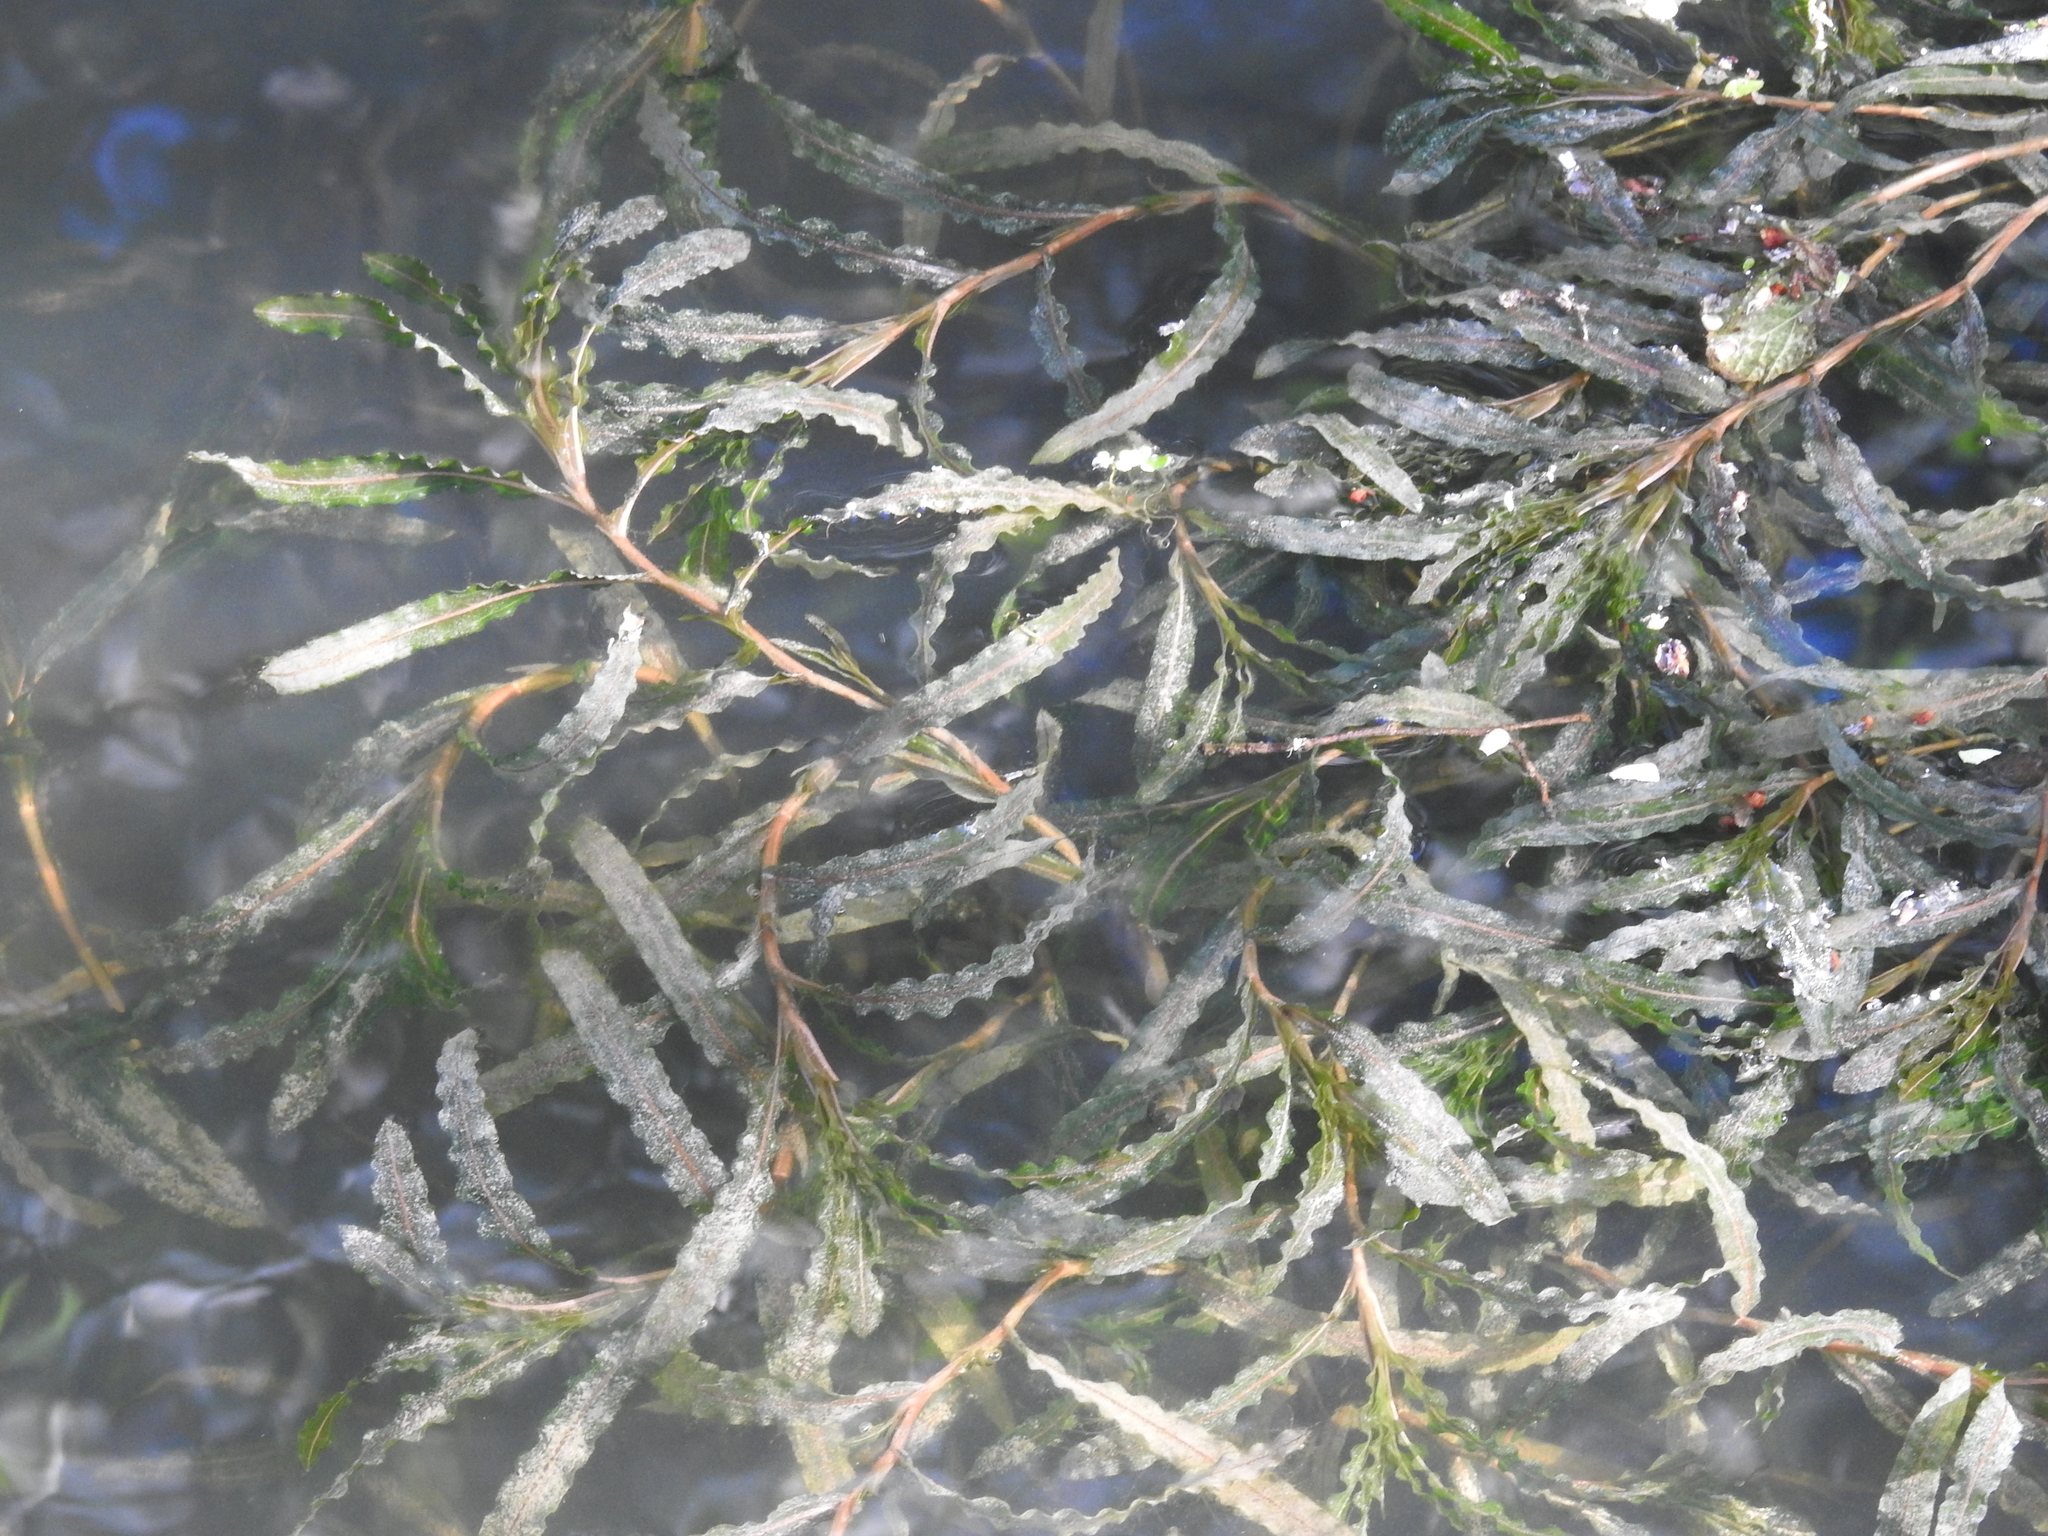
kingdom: Plantae
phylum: Tracheophyta
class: Liliopsida
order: Alismatales
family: Potamogetonaceae
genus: Potamogeton
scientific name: Potamogeton crispus
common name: Curled pondweed
